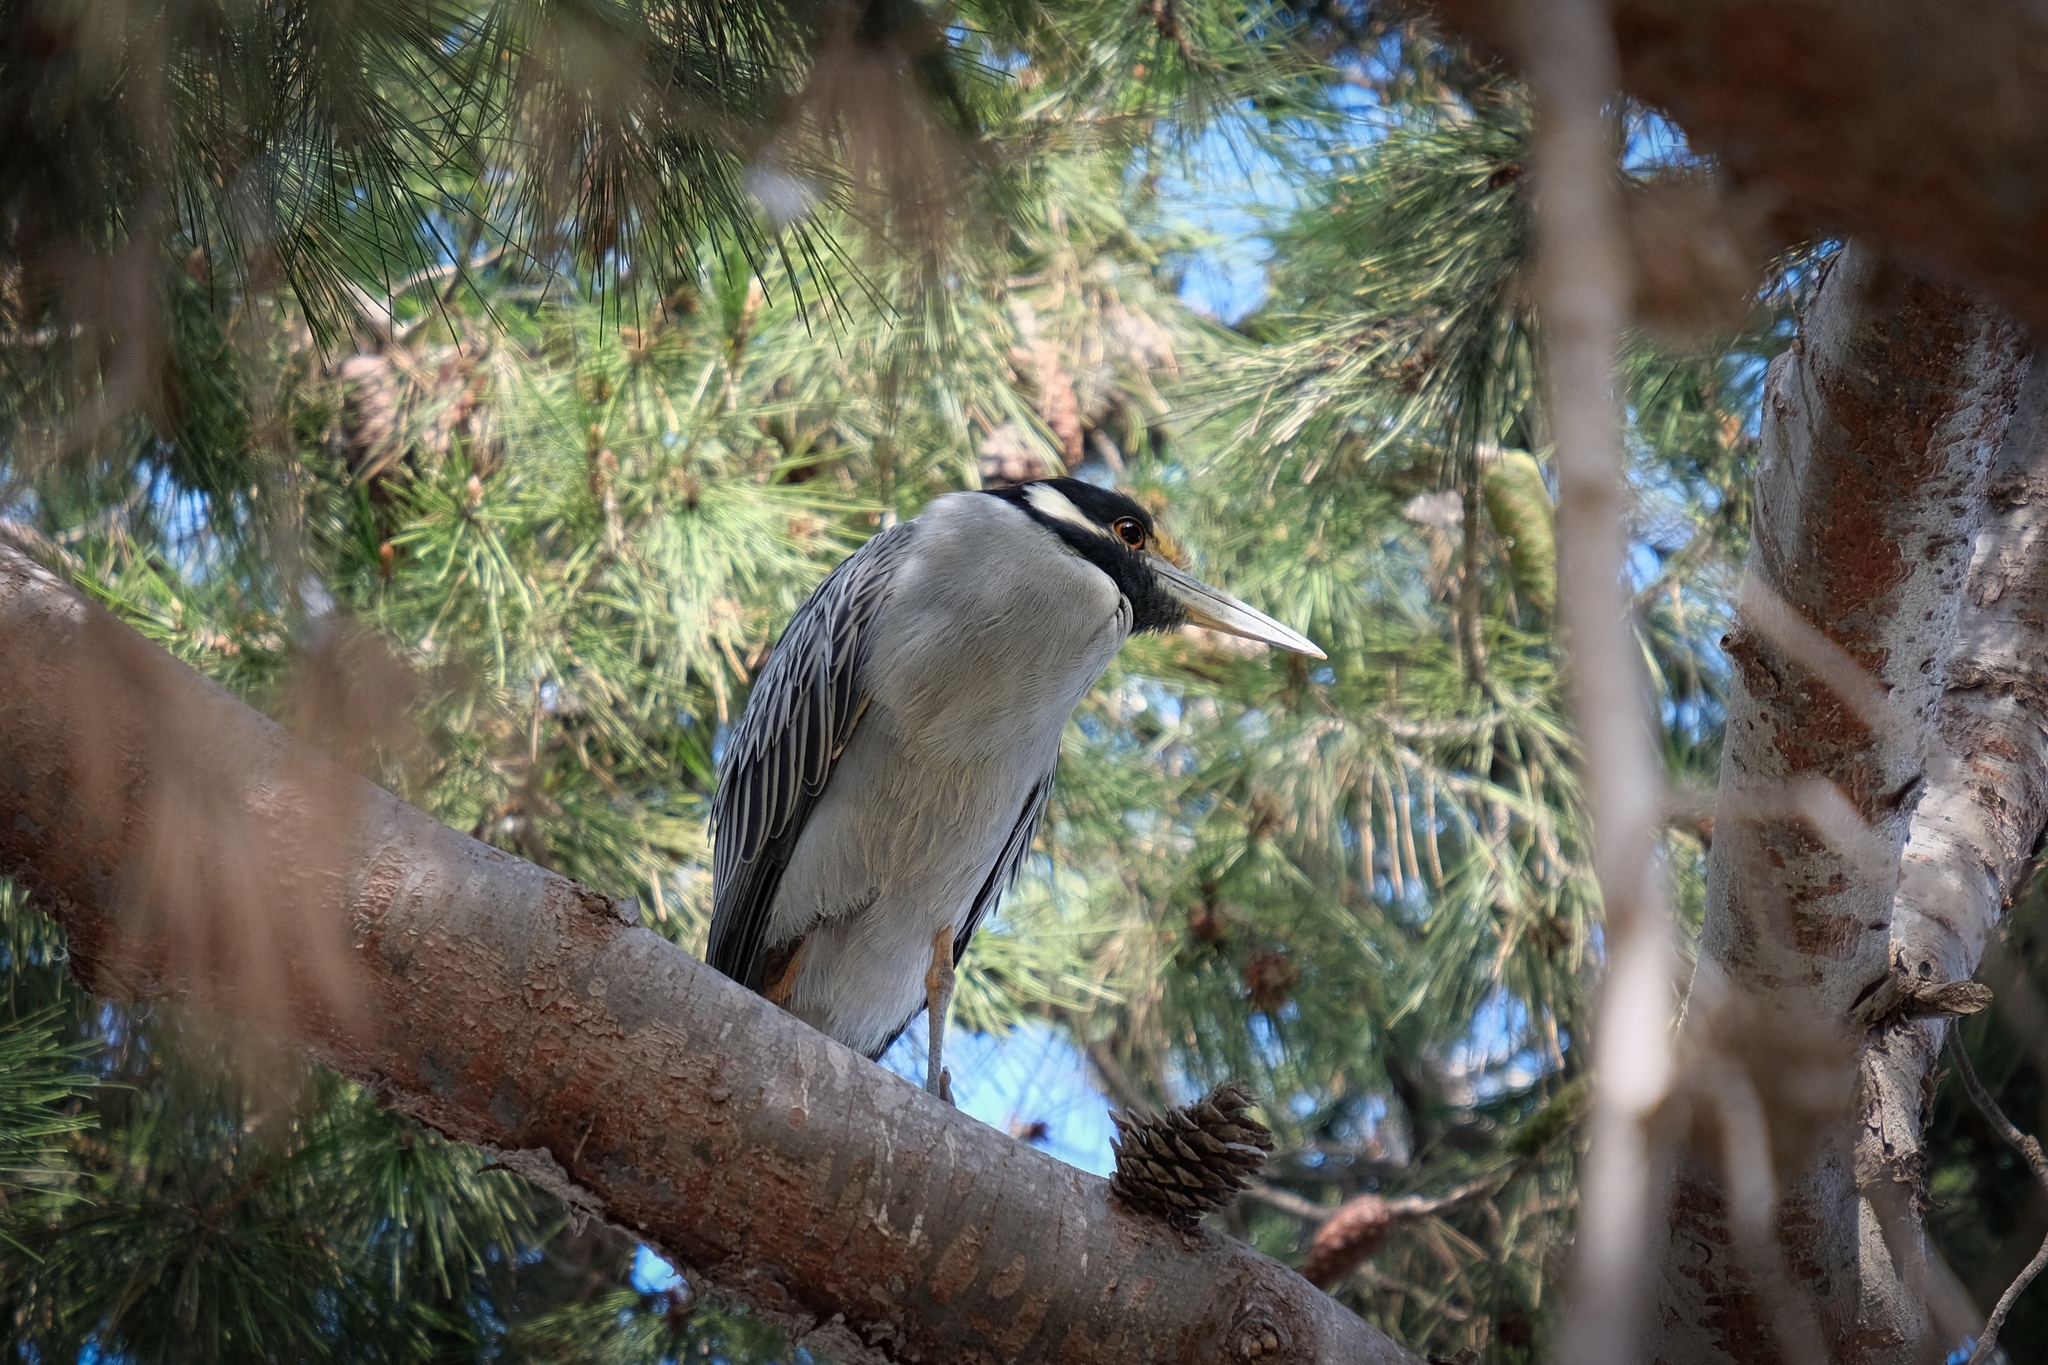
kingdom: Animalia
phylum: Chordata
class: Aves
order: Pelecaniformes
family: Ardeidae
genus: Nyctanassa
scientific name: Nyctanassa violacea
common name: Yellow-crowned night heron
